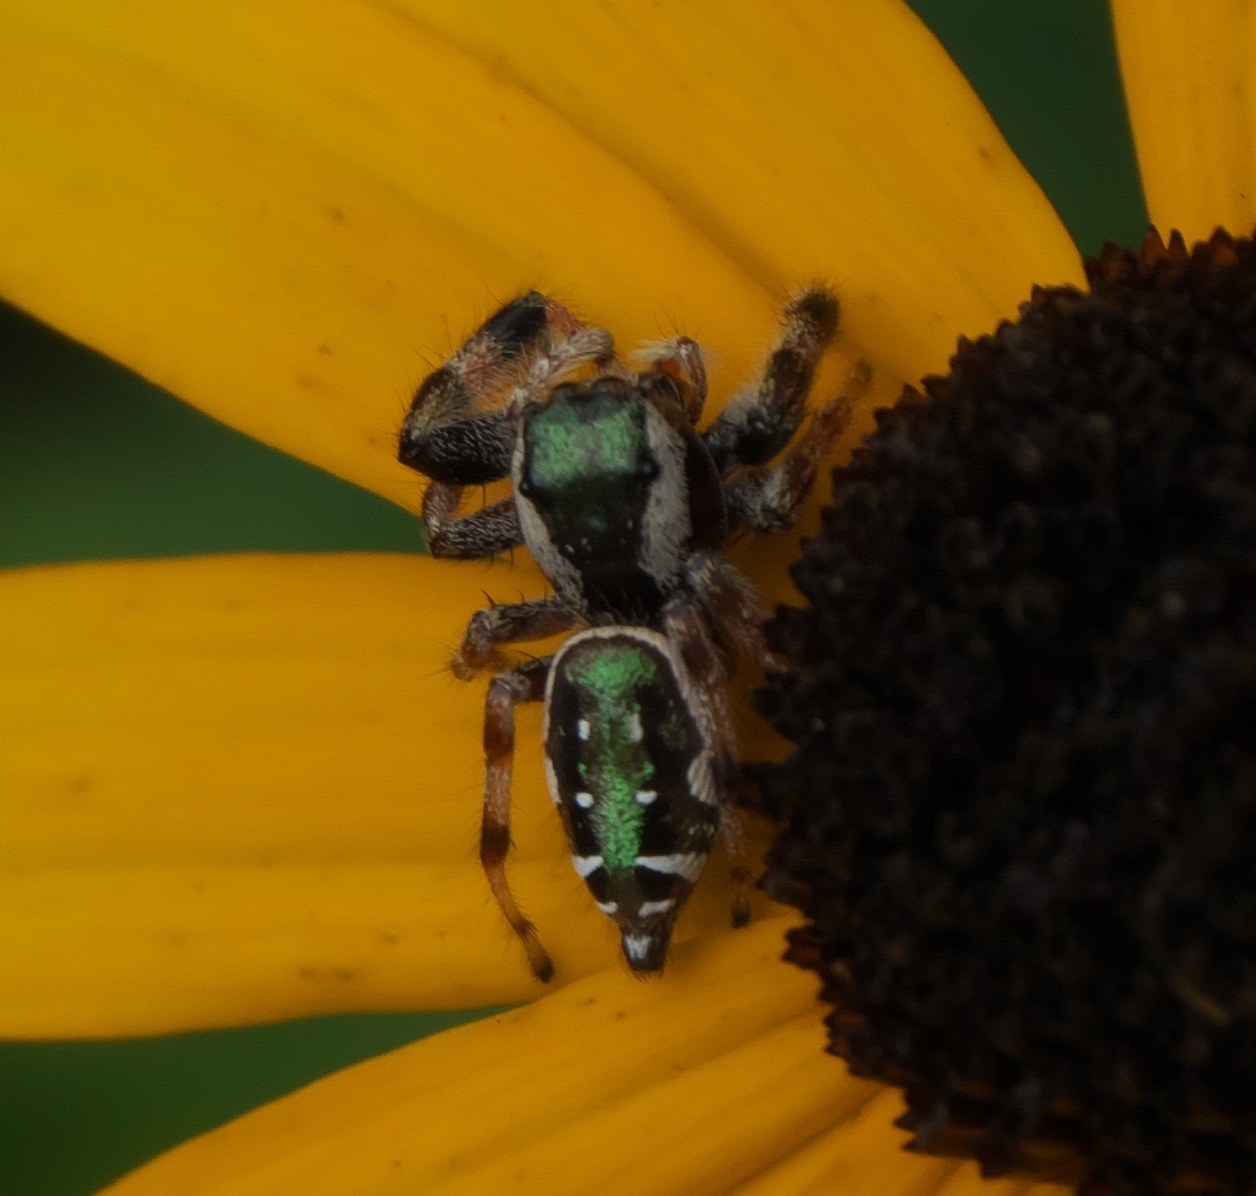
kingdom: Animalia
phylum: Arthropoda
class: Arachnida
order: Araneae
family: Salticidae
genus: Paraphidippus
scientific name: Paraphidippus aurantius
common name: Jumping spiders
